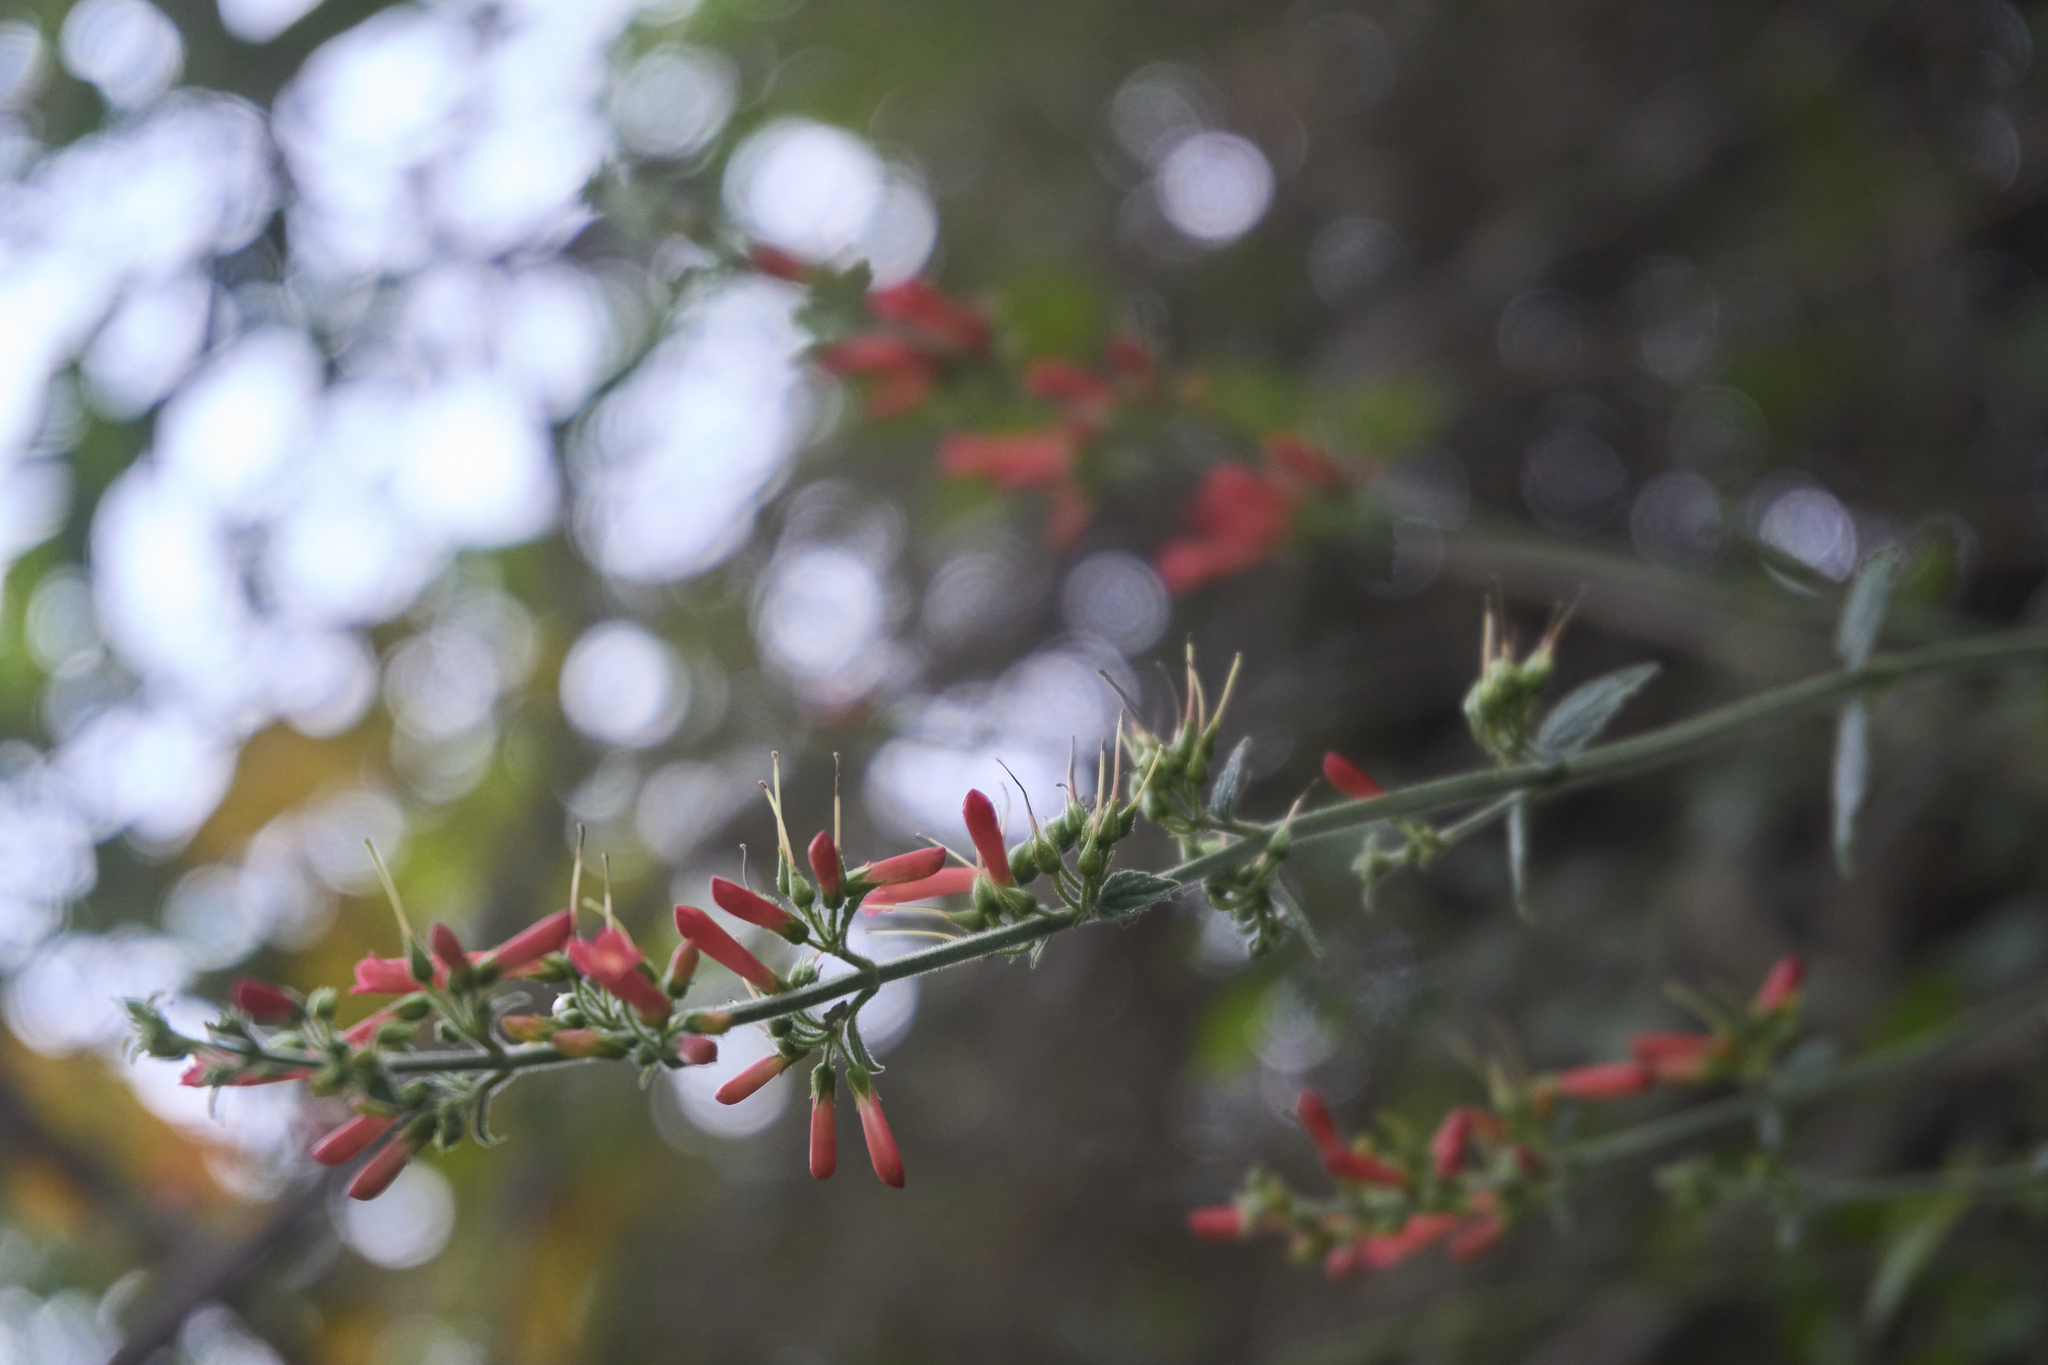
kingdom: Plantae
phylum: Tracheophyta
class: Magnoliopsida
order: Lamiales
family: Plantaginaceae
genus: Russelia
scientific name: Russelia sarmentosa
